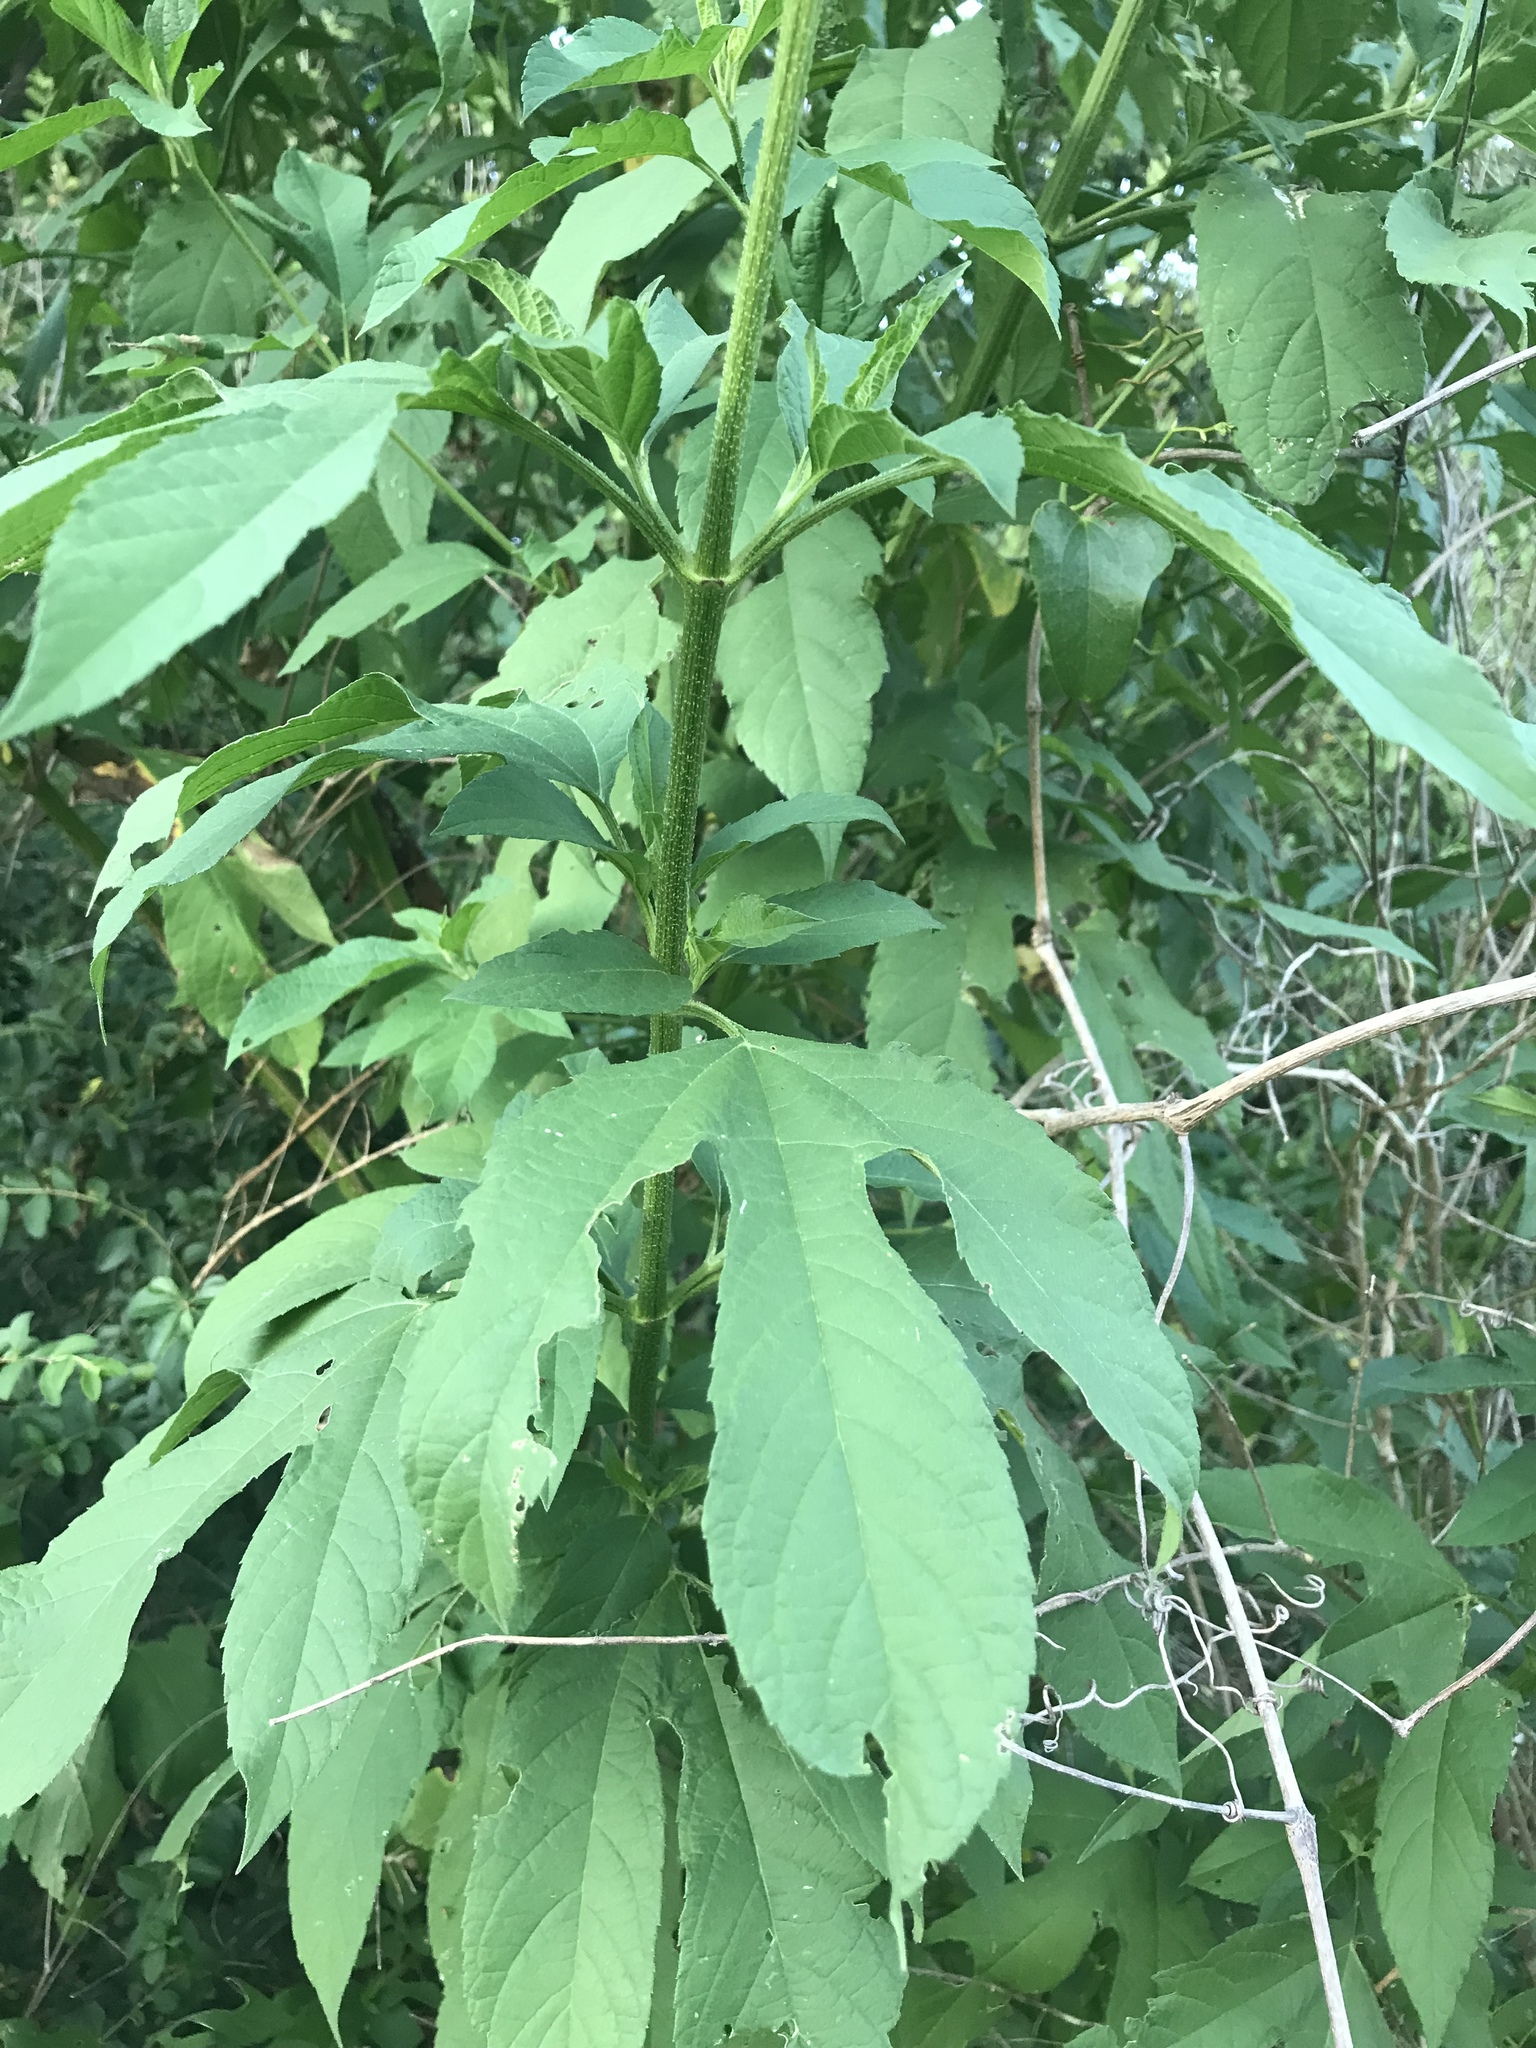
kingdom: Plantae
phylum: Tracheophyta
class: Magnoliopsida
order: Asterales
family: Asteraceae
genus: Ambrosia
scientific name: Ambrosia trifida
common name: Giant ragweed
